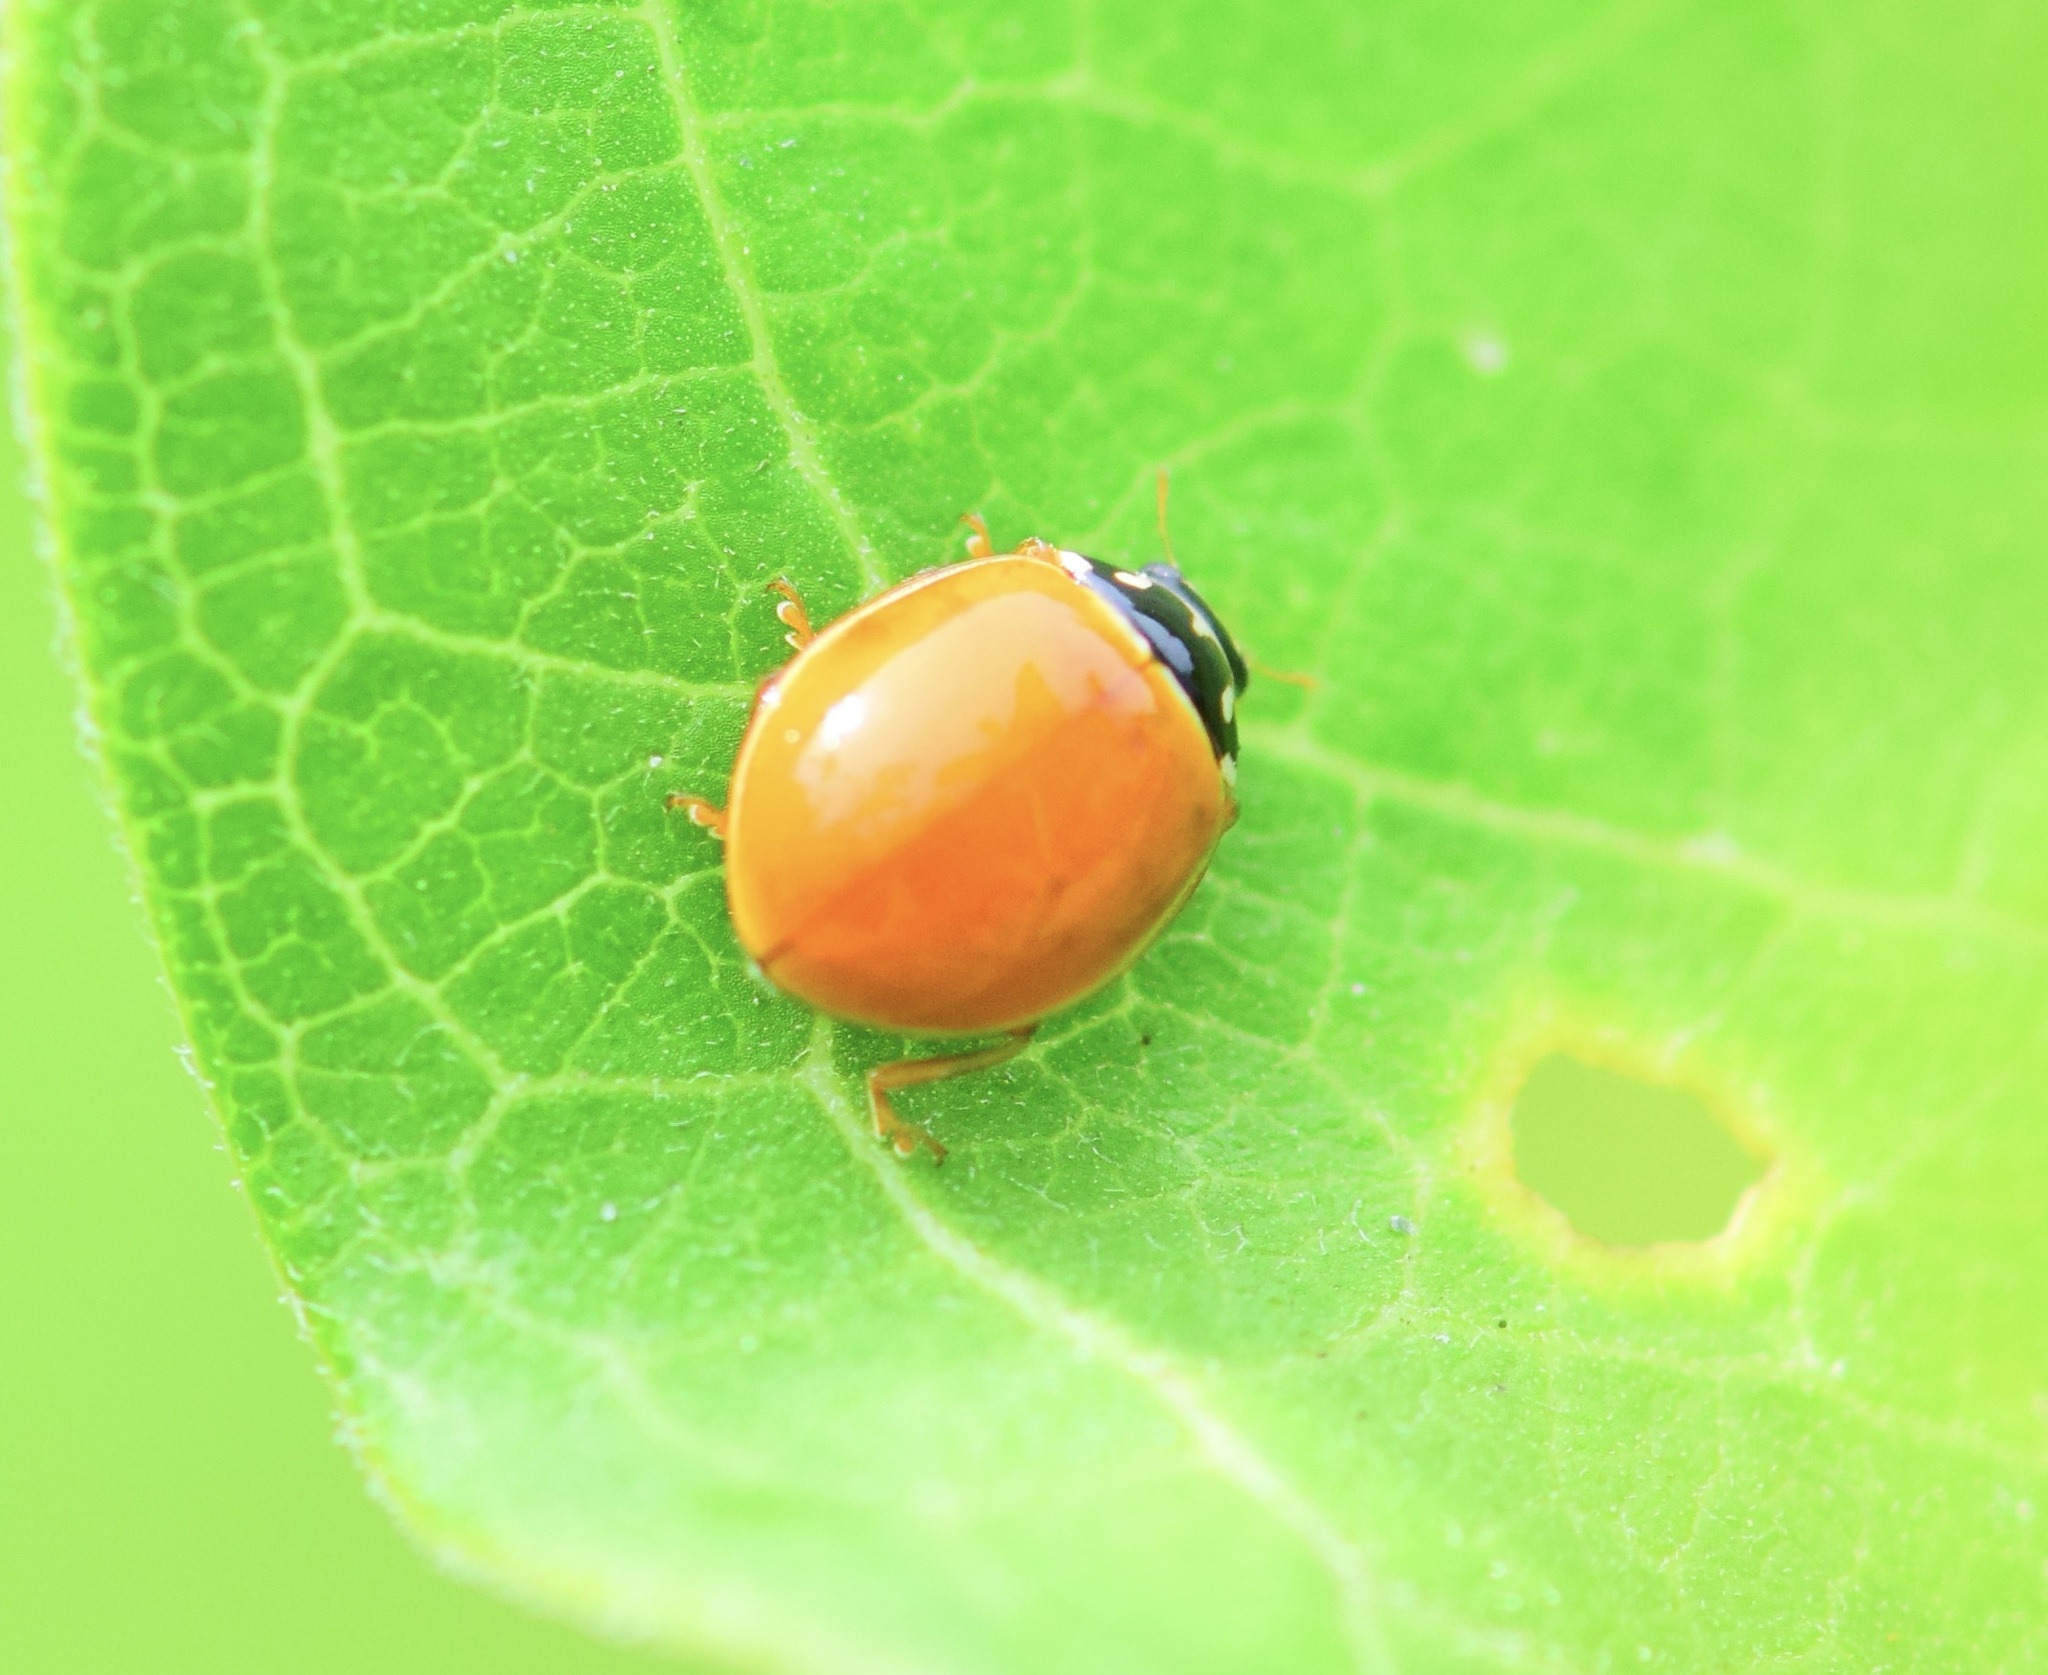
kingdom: Animalia
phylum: Arthropoda
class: Insecta
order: Coleoptera
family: Coccinellidae
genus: Cycloneda
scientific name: Cycloneda munda
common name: Polished lady beetle
